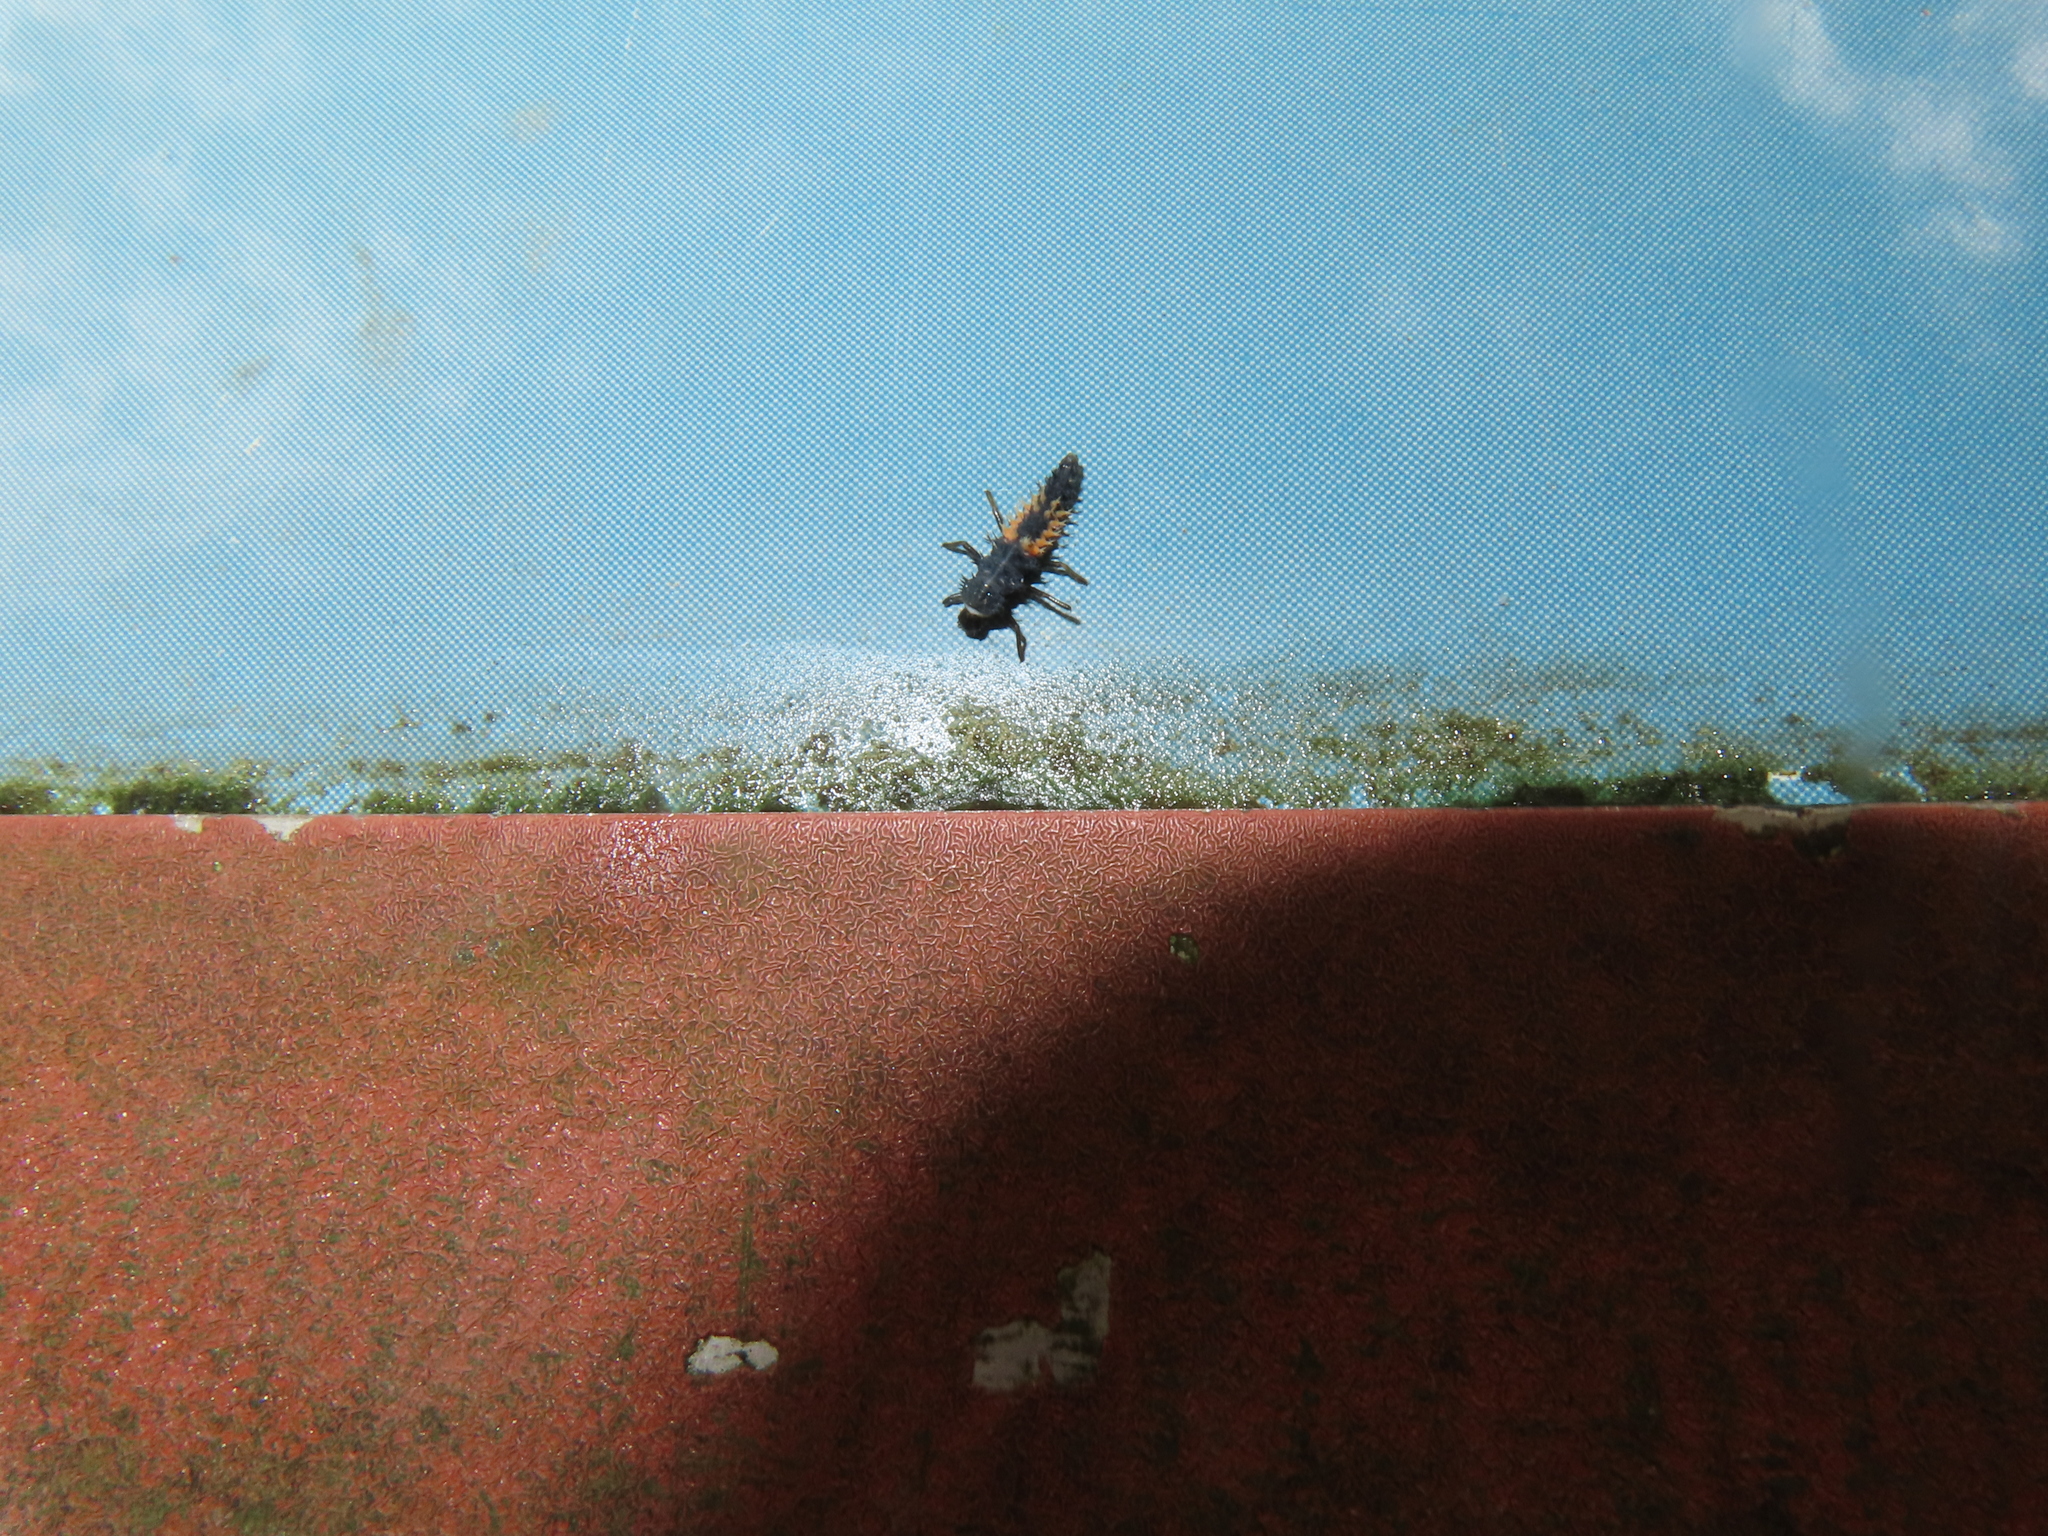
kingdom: Animalia
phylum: Arthropoda
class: Insecta
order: Coleoptera
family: Coccinellidae
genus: Harmonia
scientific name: Harmonia axyridis
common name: Harlequin ladybird
